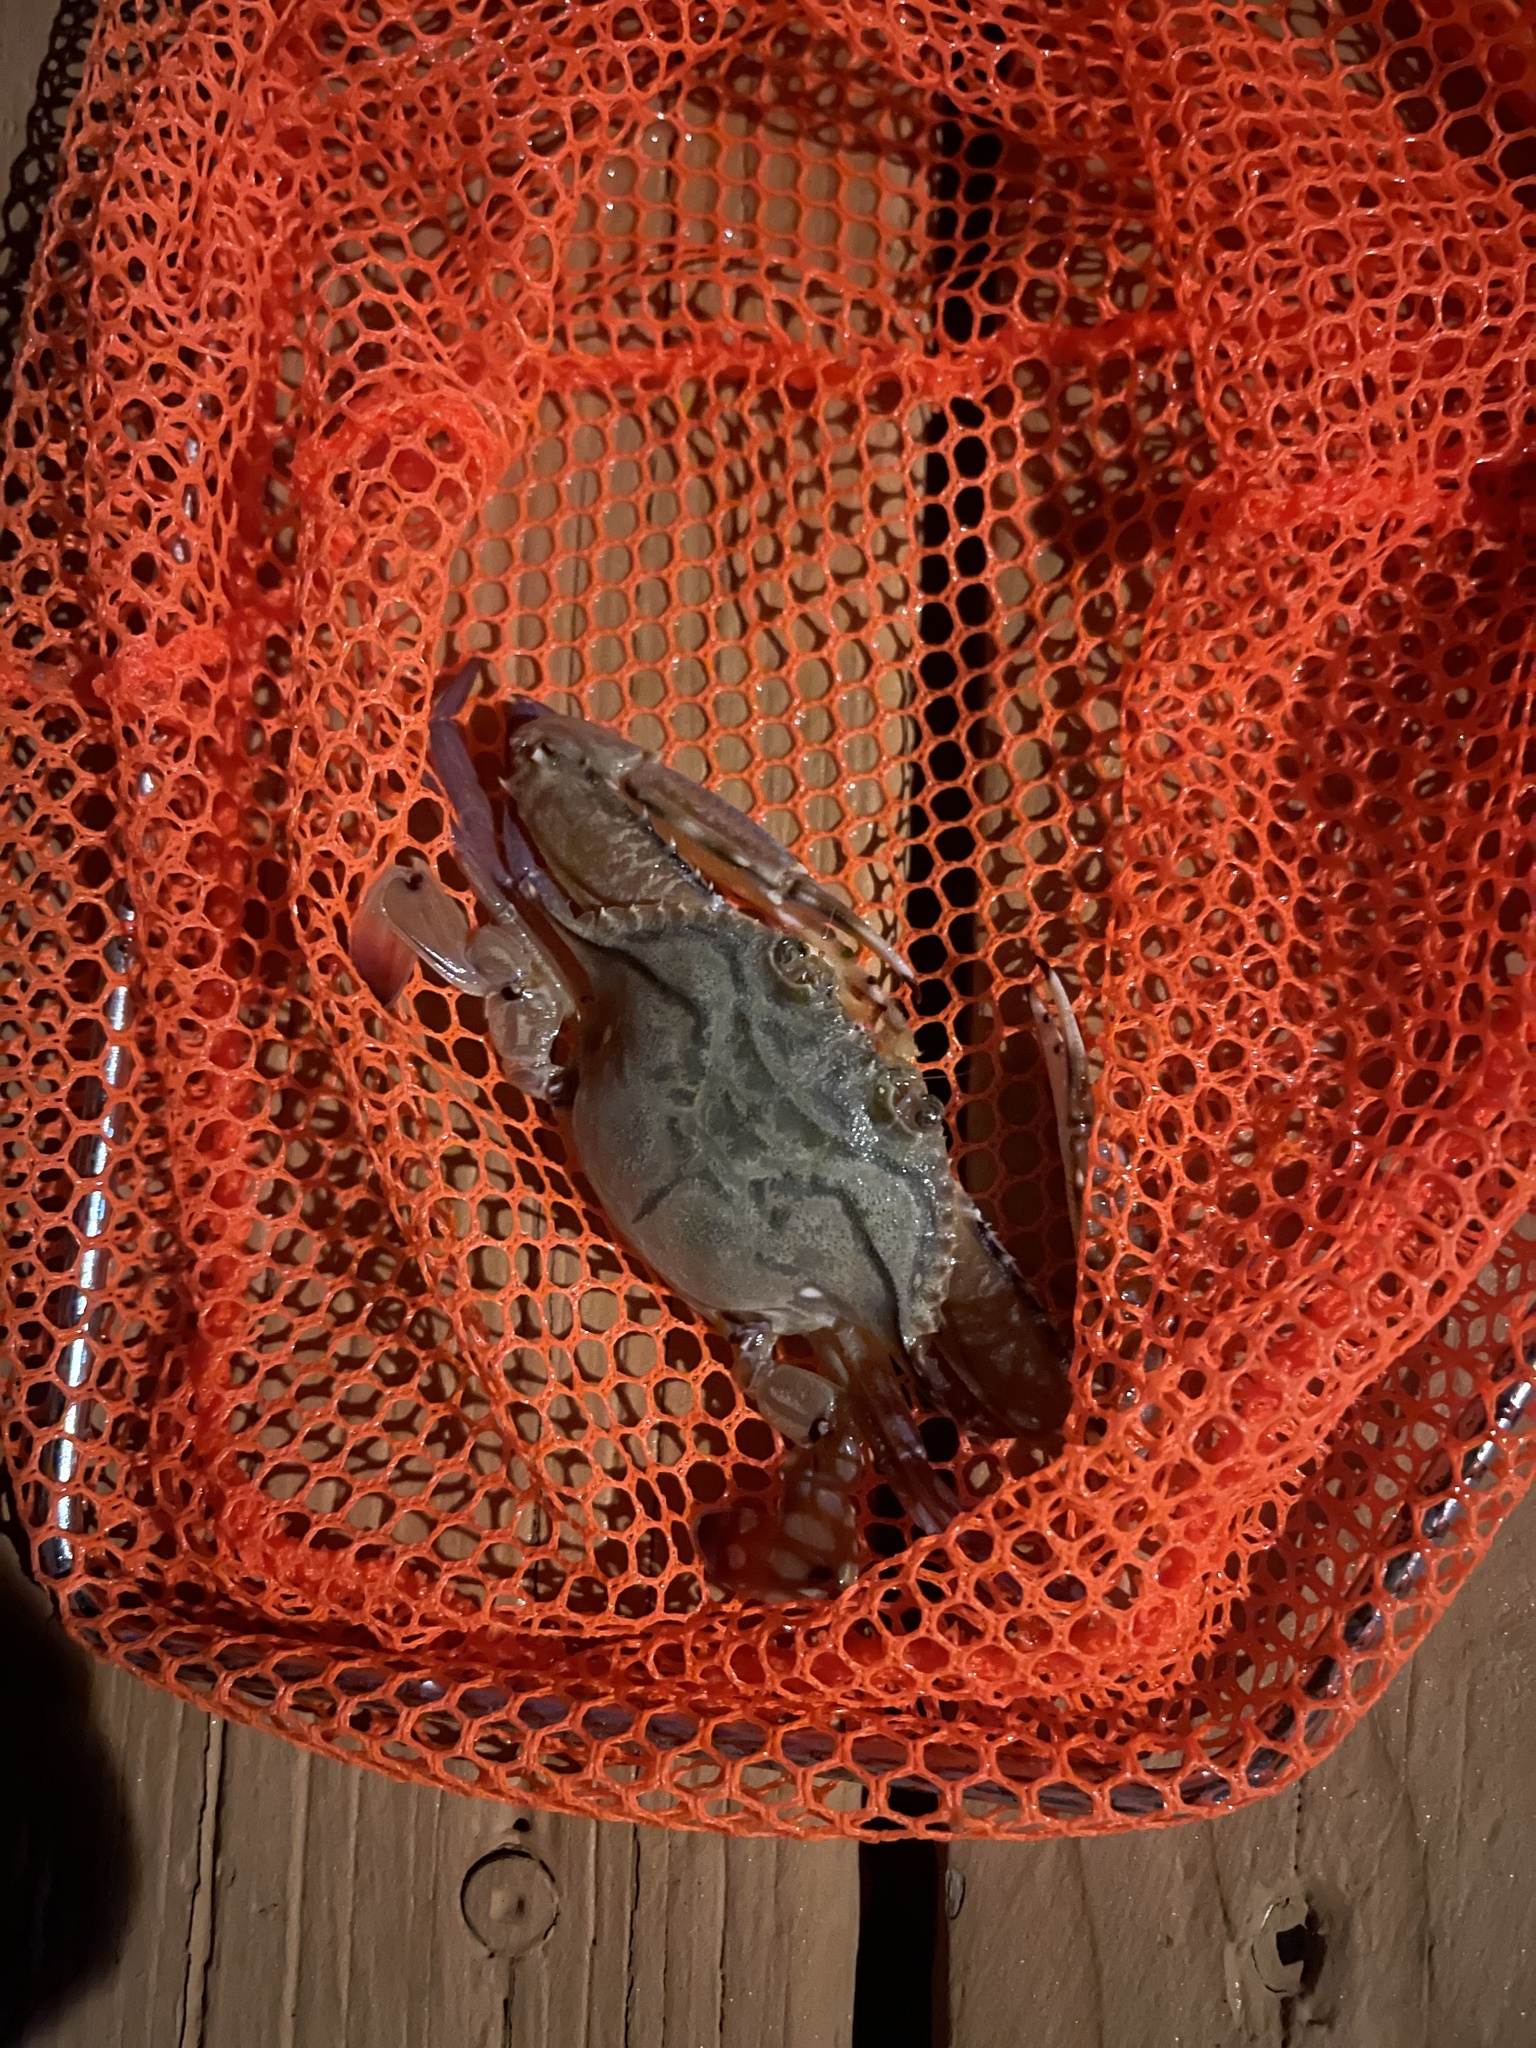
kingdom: Animalia
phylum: Arthropoda
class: Malacostraca
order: Decapoda
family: Portunidae
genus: Achelous
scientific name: Achelous gibbesii
